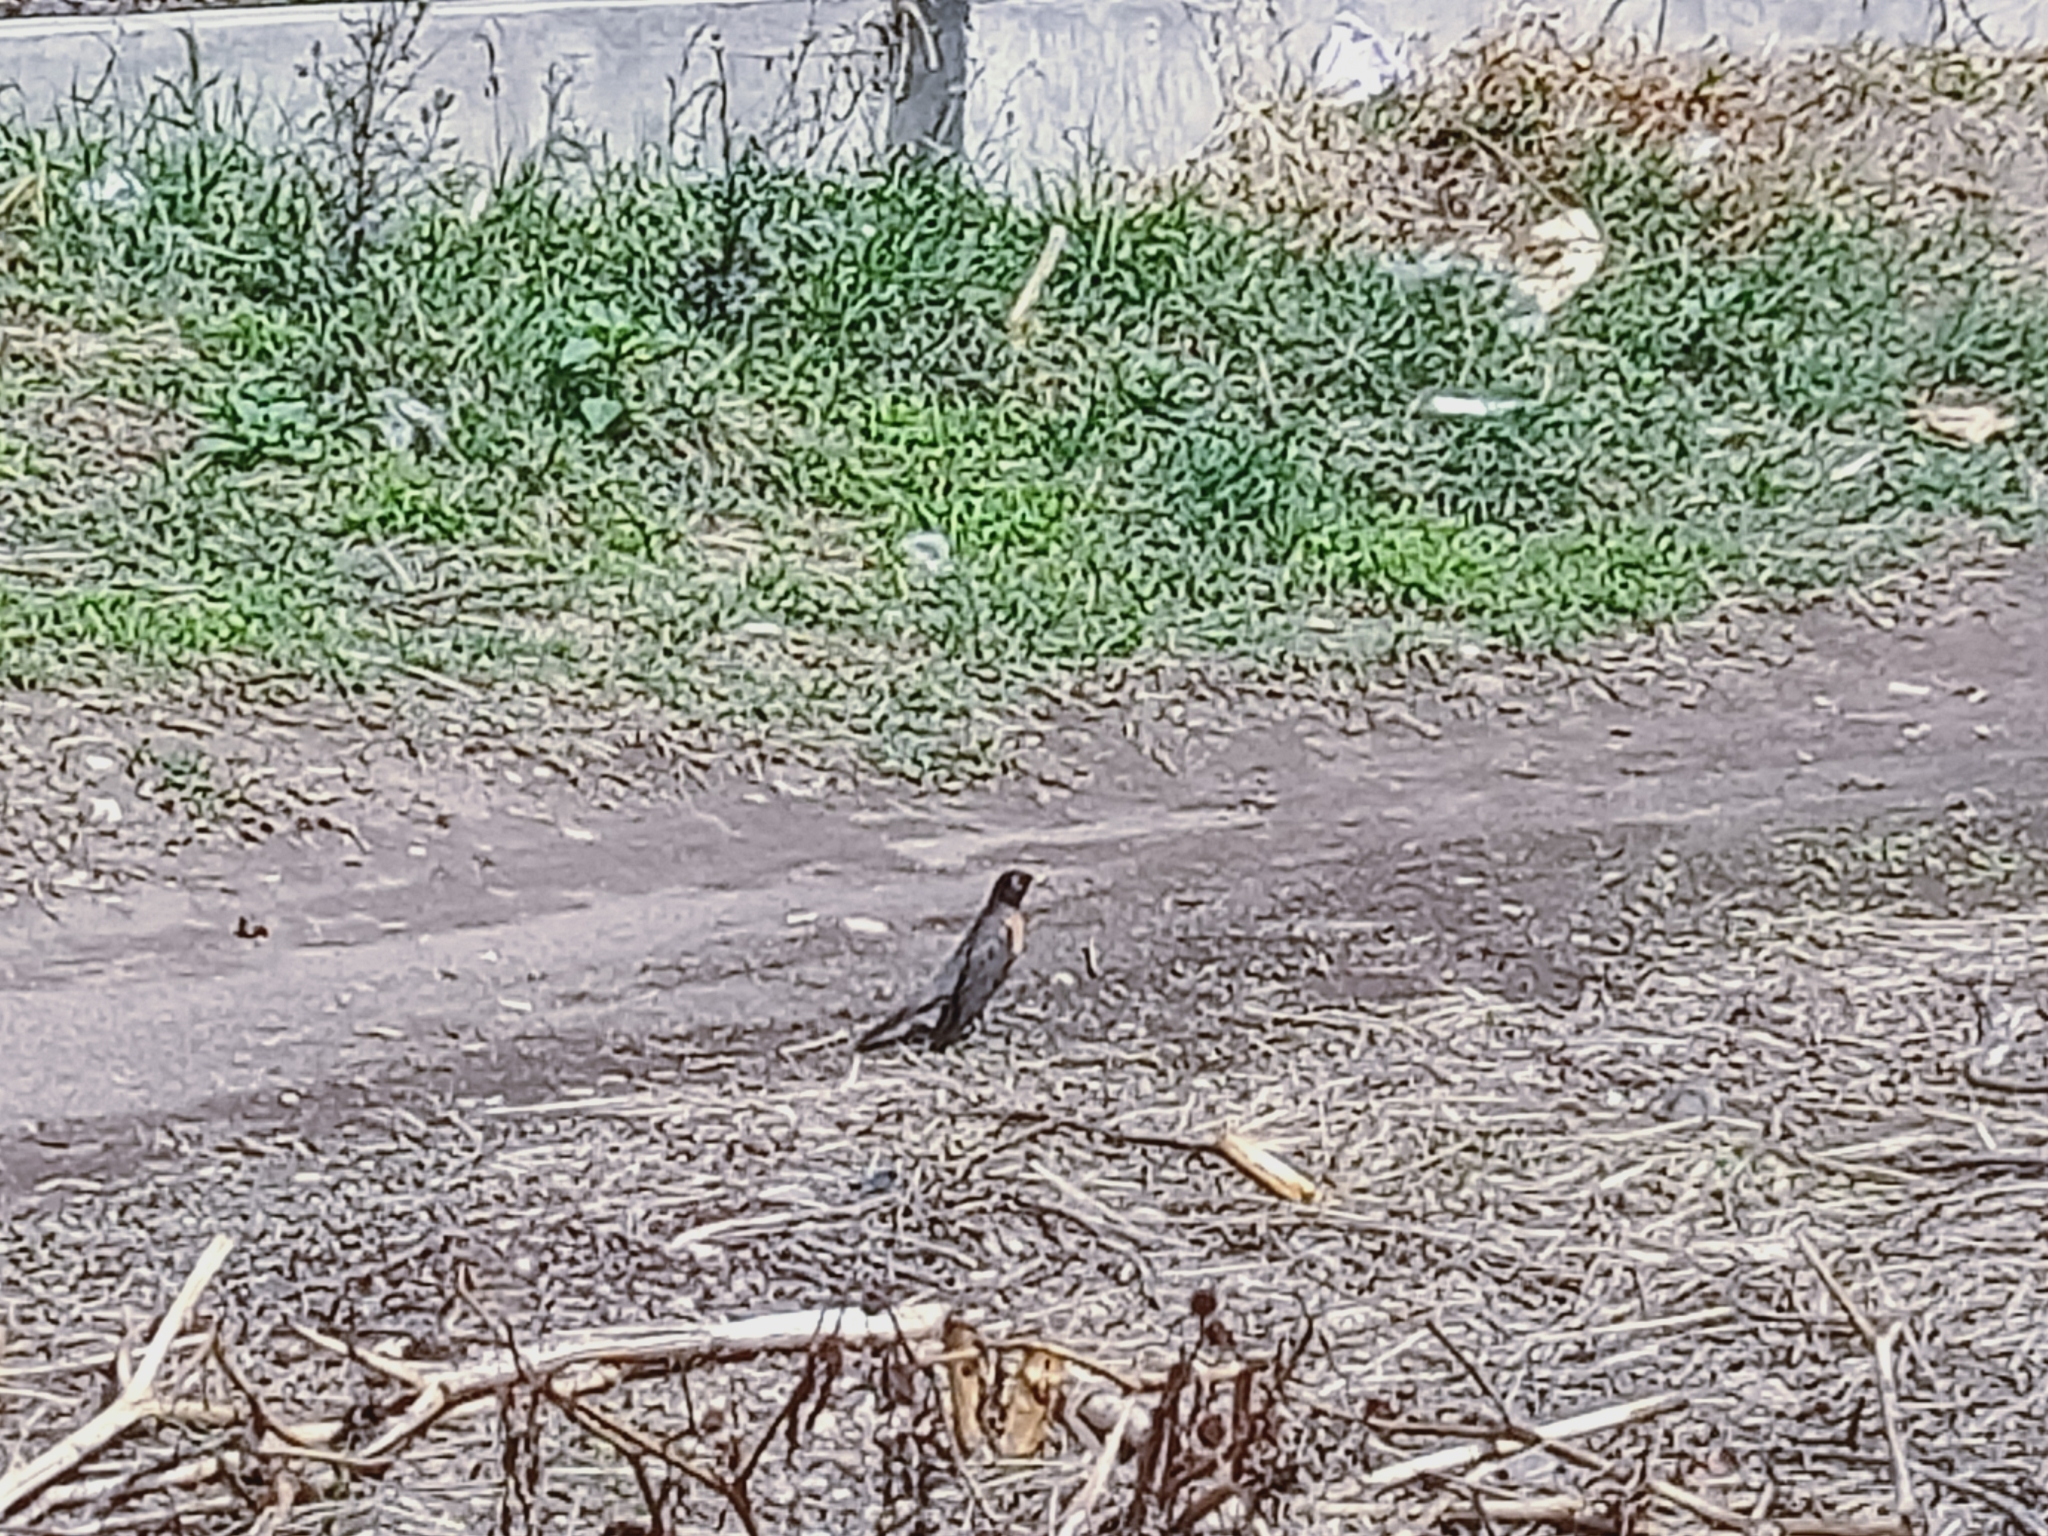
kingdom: Animalia
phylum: Chordata
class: Aves
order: Passeriformes
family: Turdidae
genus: Turdus
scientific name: Turdus migratorius
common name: American robin
